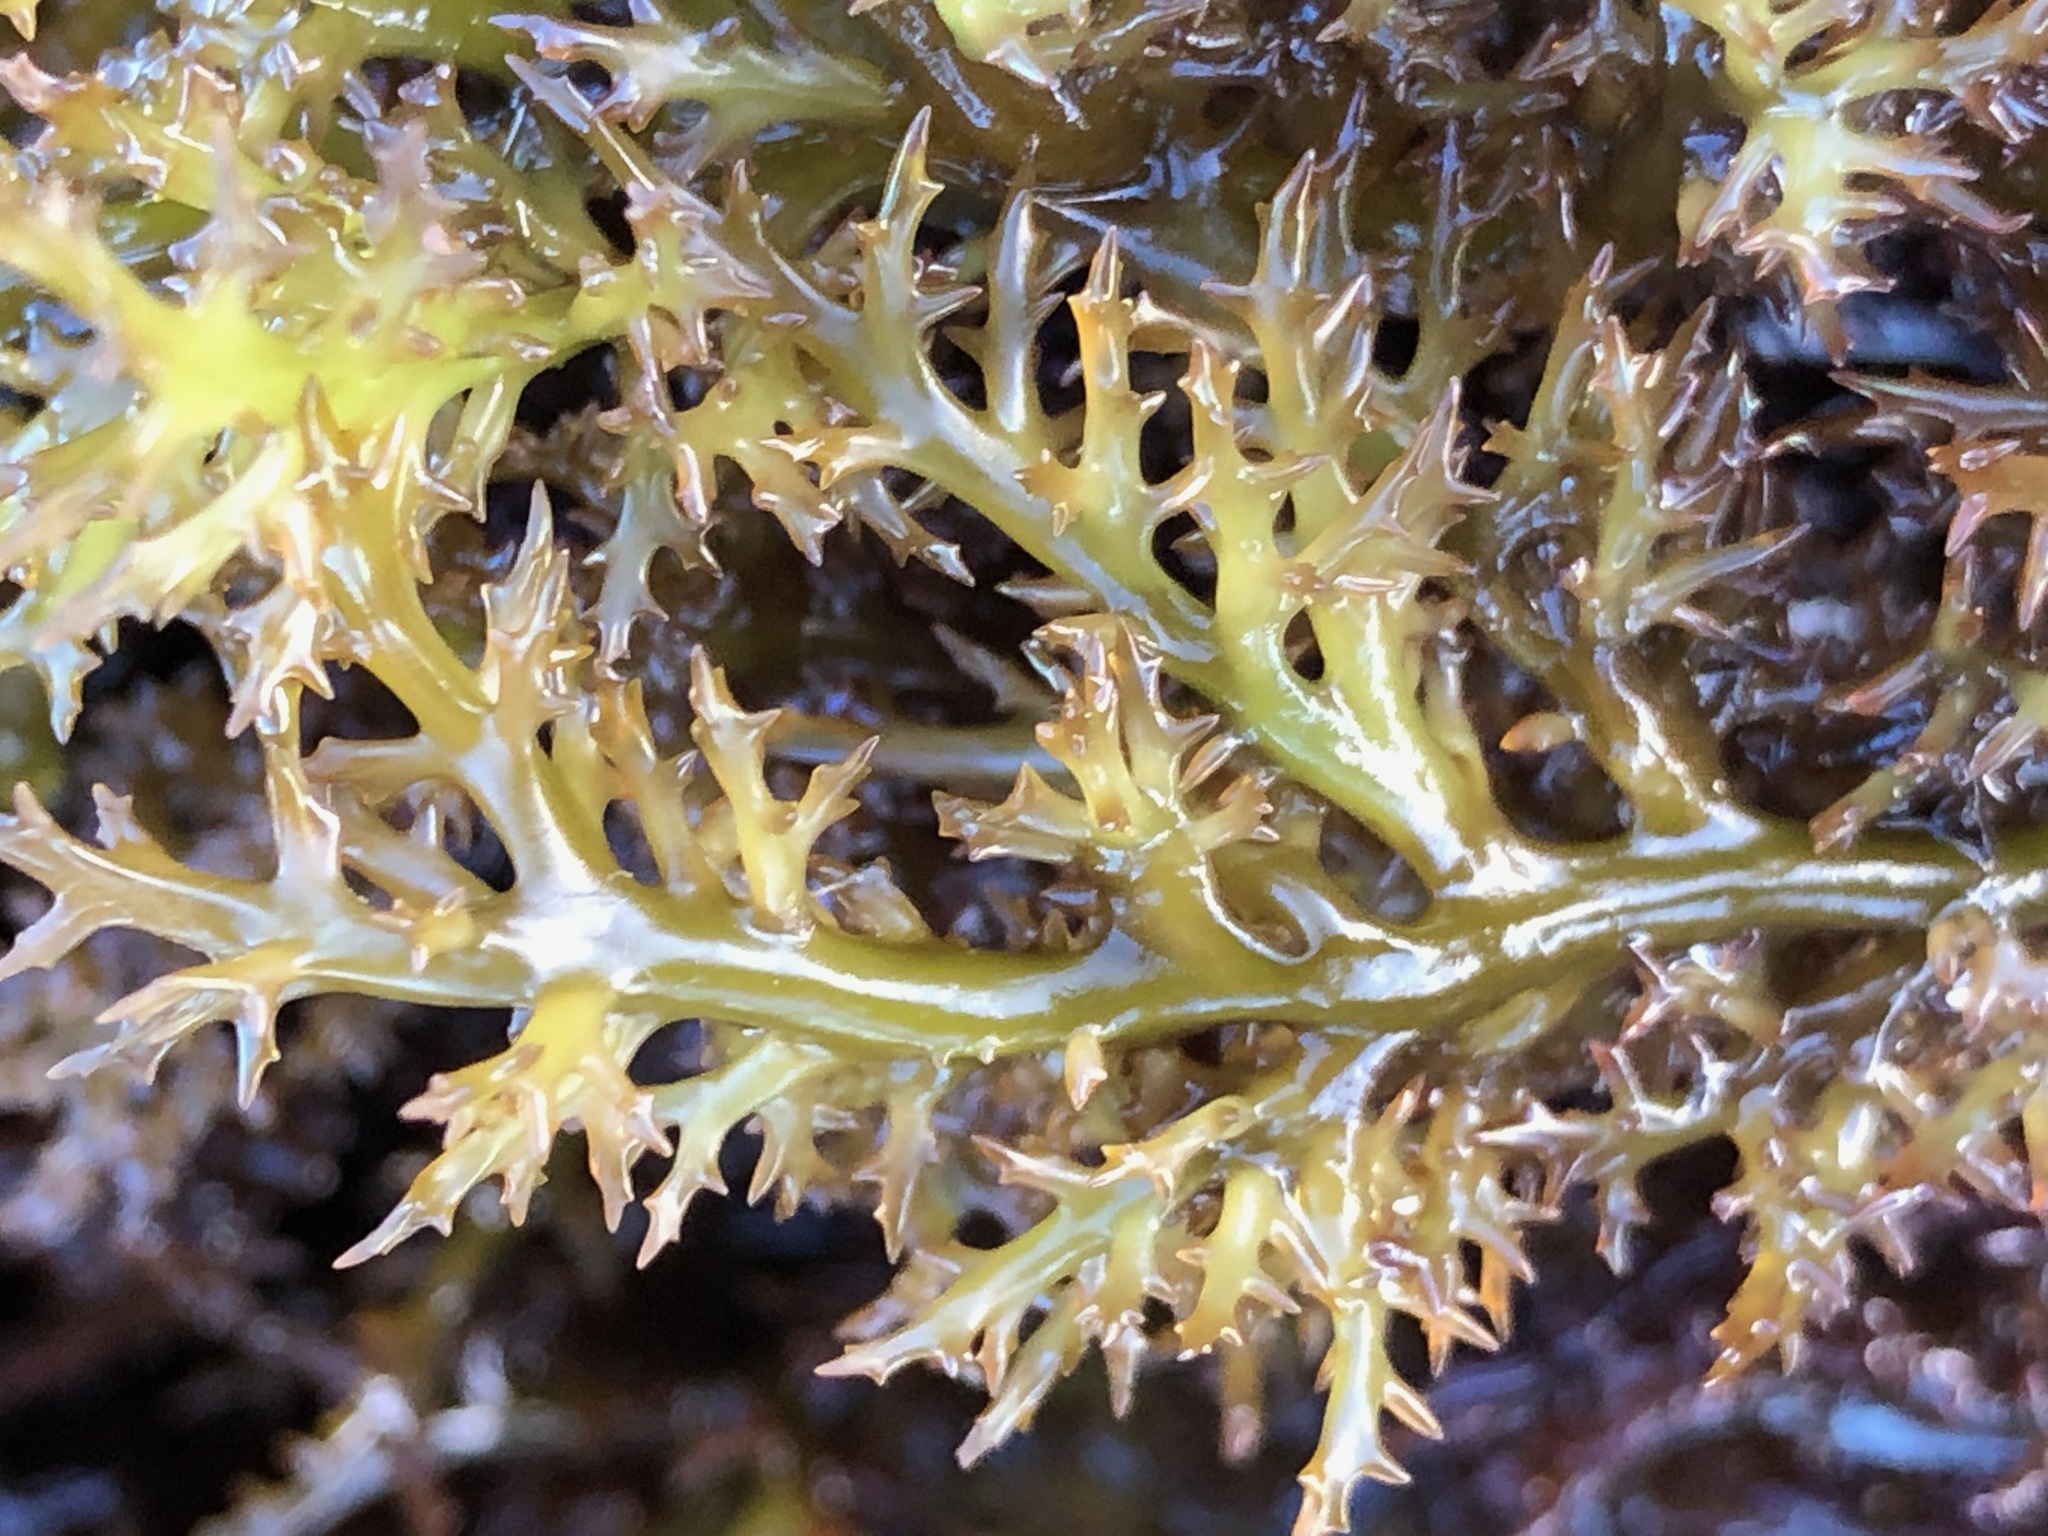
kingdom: Plantae
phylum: Rhodophyta
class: Florideophyceae
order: Gigartinales
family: Gigartinaceae
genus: Chondracanthus
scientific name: Chondracanthus canaliculatus
